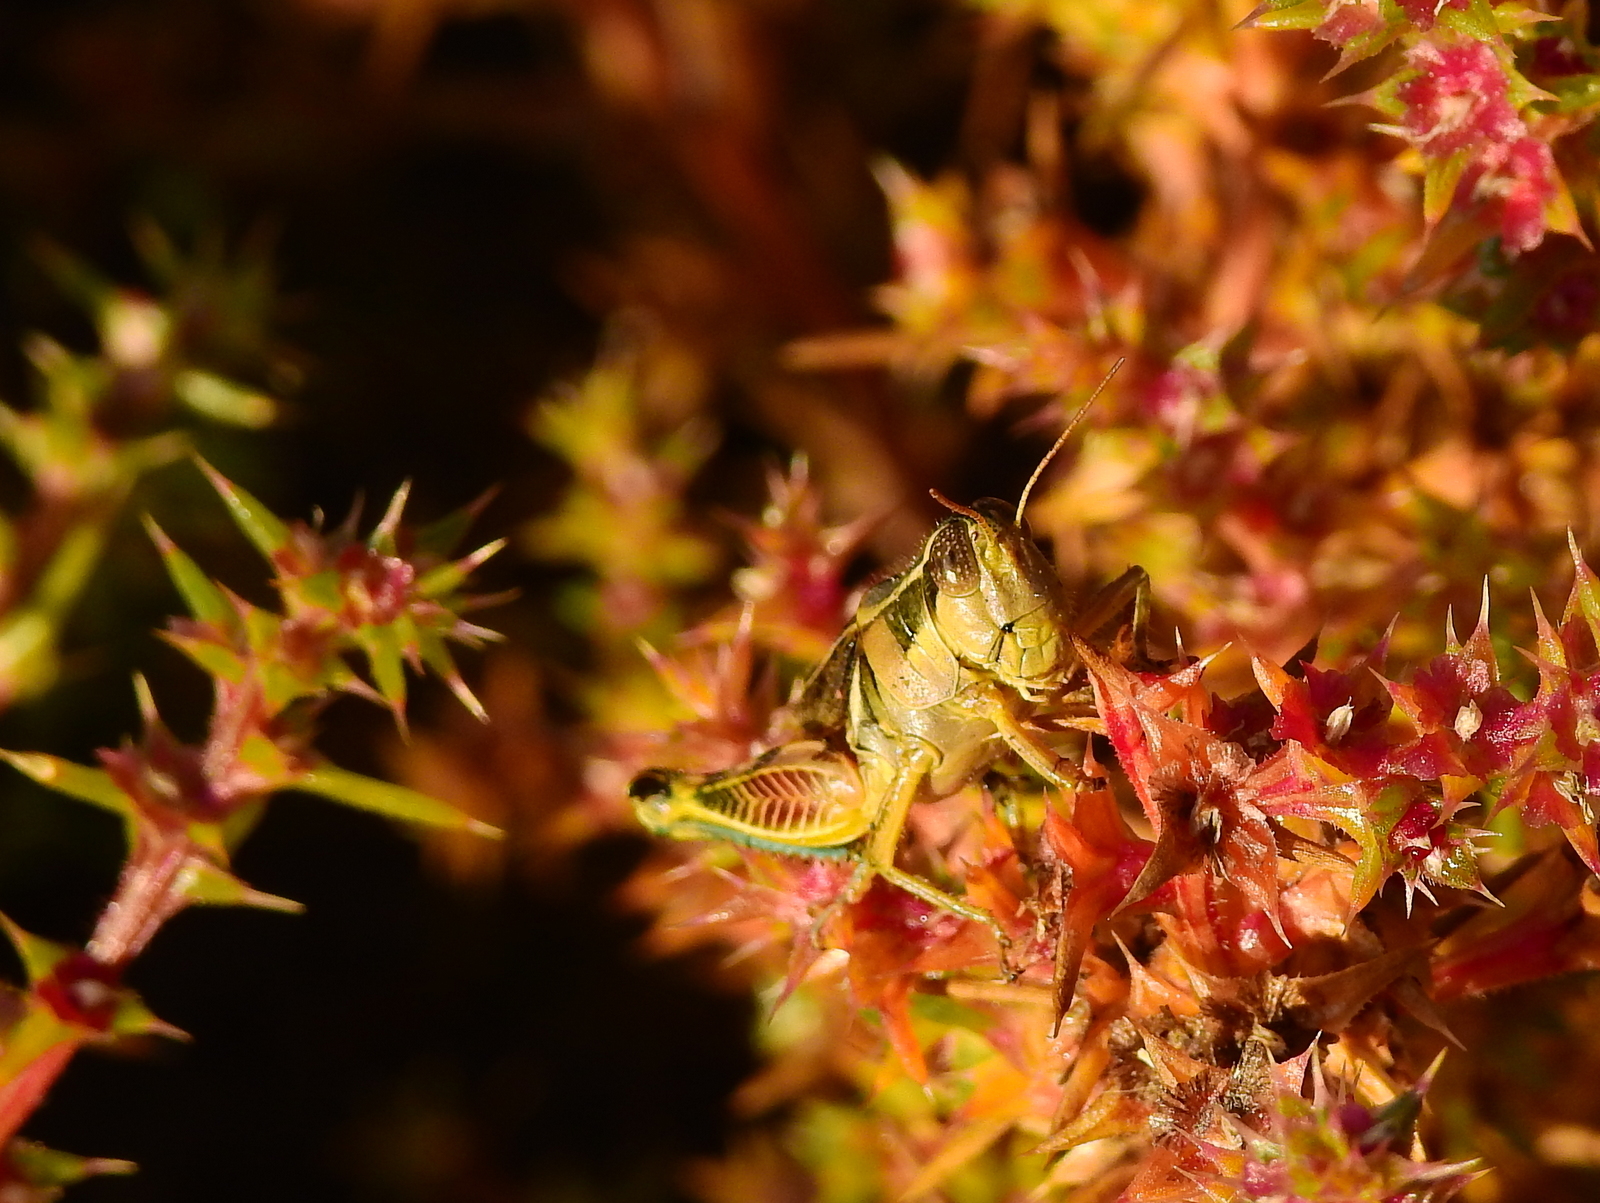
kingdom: Animalia
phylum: Arthropoda
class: Insecta
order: Orthoptera
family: Acrididae
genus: Dichroplus
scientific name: Dichroplus vittatus
